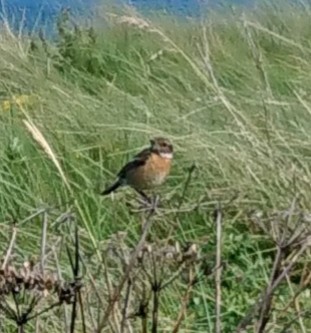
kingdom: Animalia
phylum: Chordata
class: Aves
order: Passeriformes
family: Muscicapidae
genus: Saxicola
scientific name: Saxicola rubicola
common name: European stonechat
